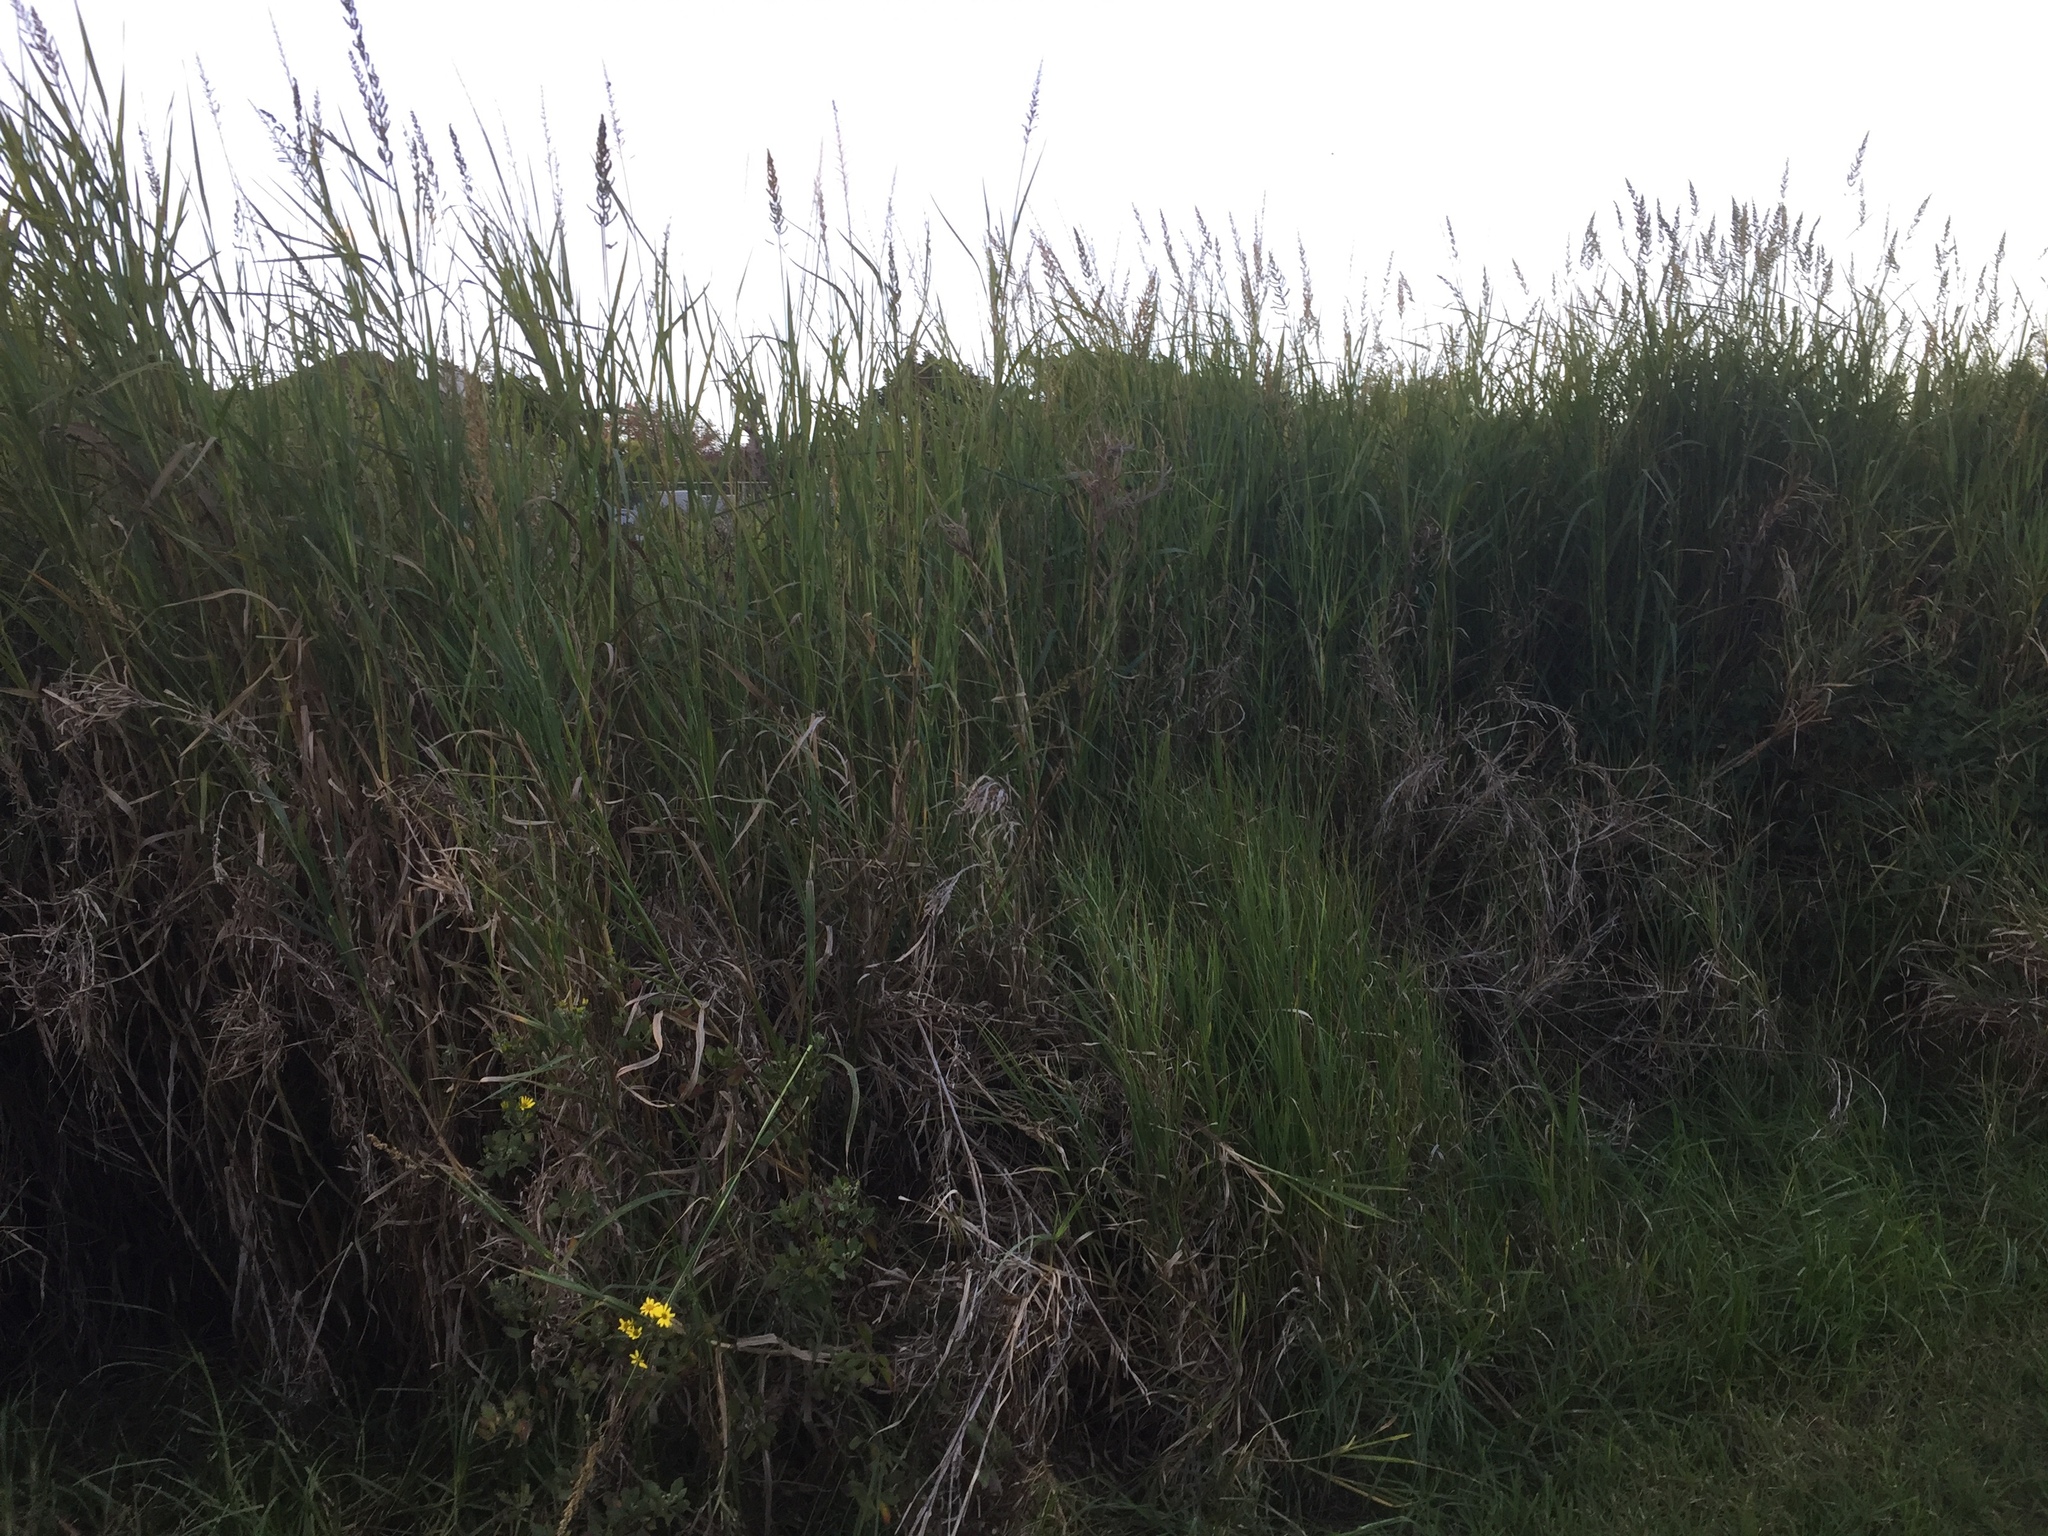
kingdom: Plantae
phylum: Tracheophyta
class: Liliopsida
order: Poales
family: Poaceae
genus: Echinochloa
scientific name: Echinochloa pyramidalis
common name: Antelope grass
